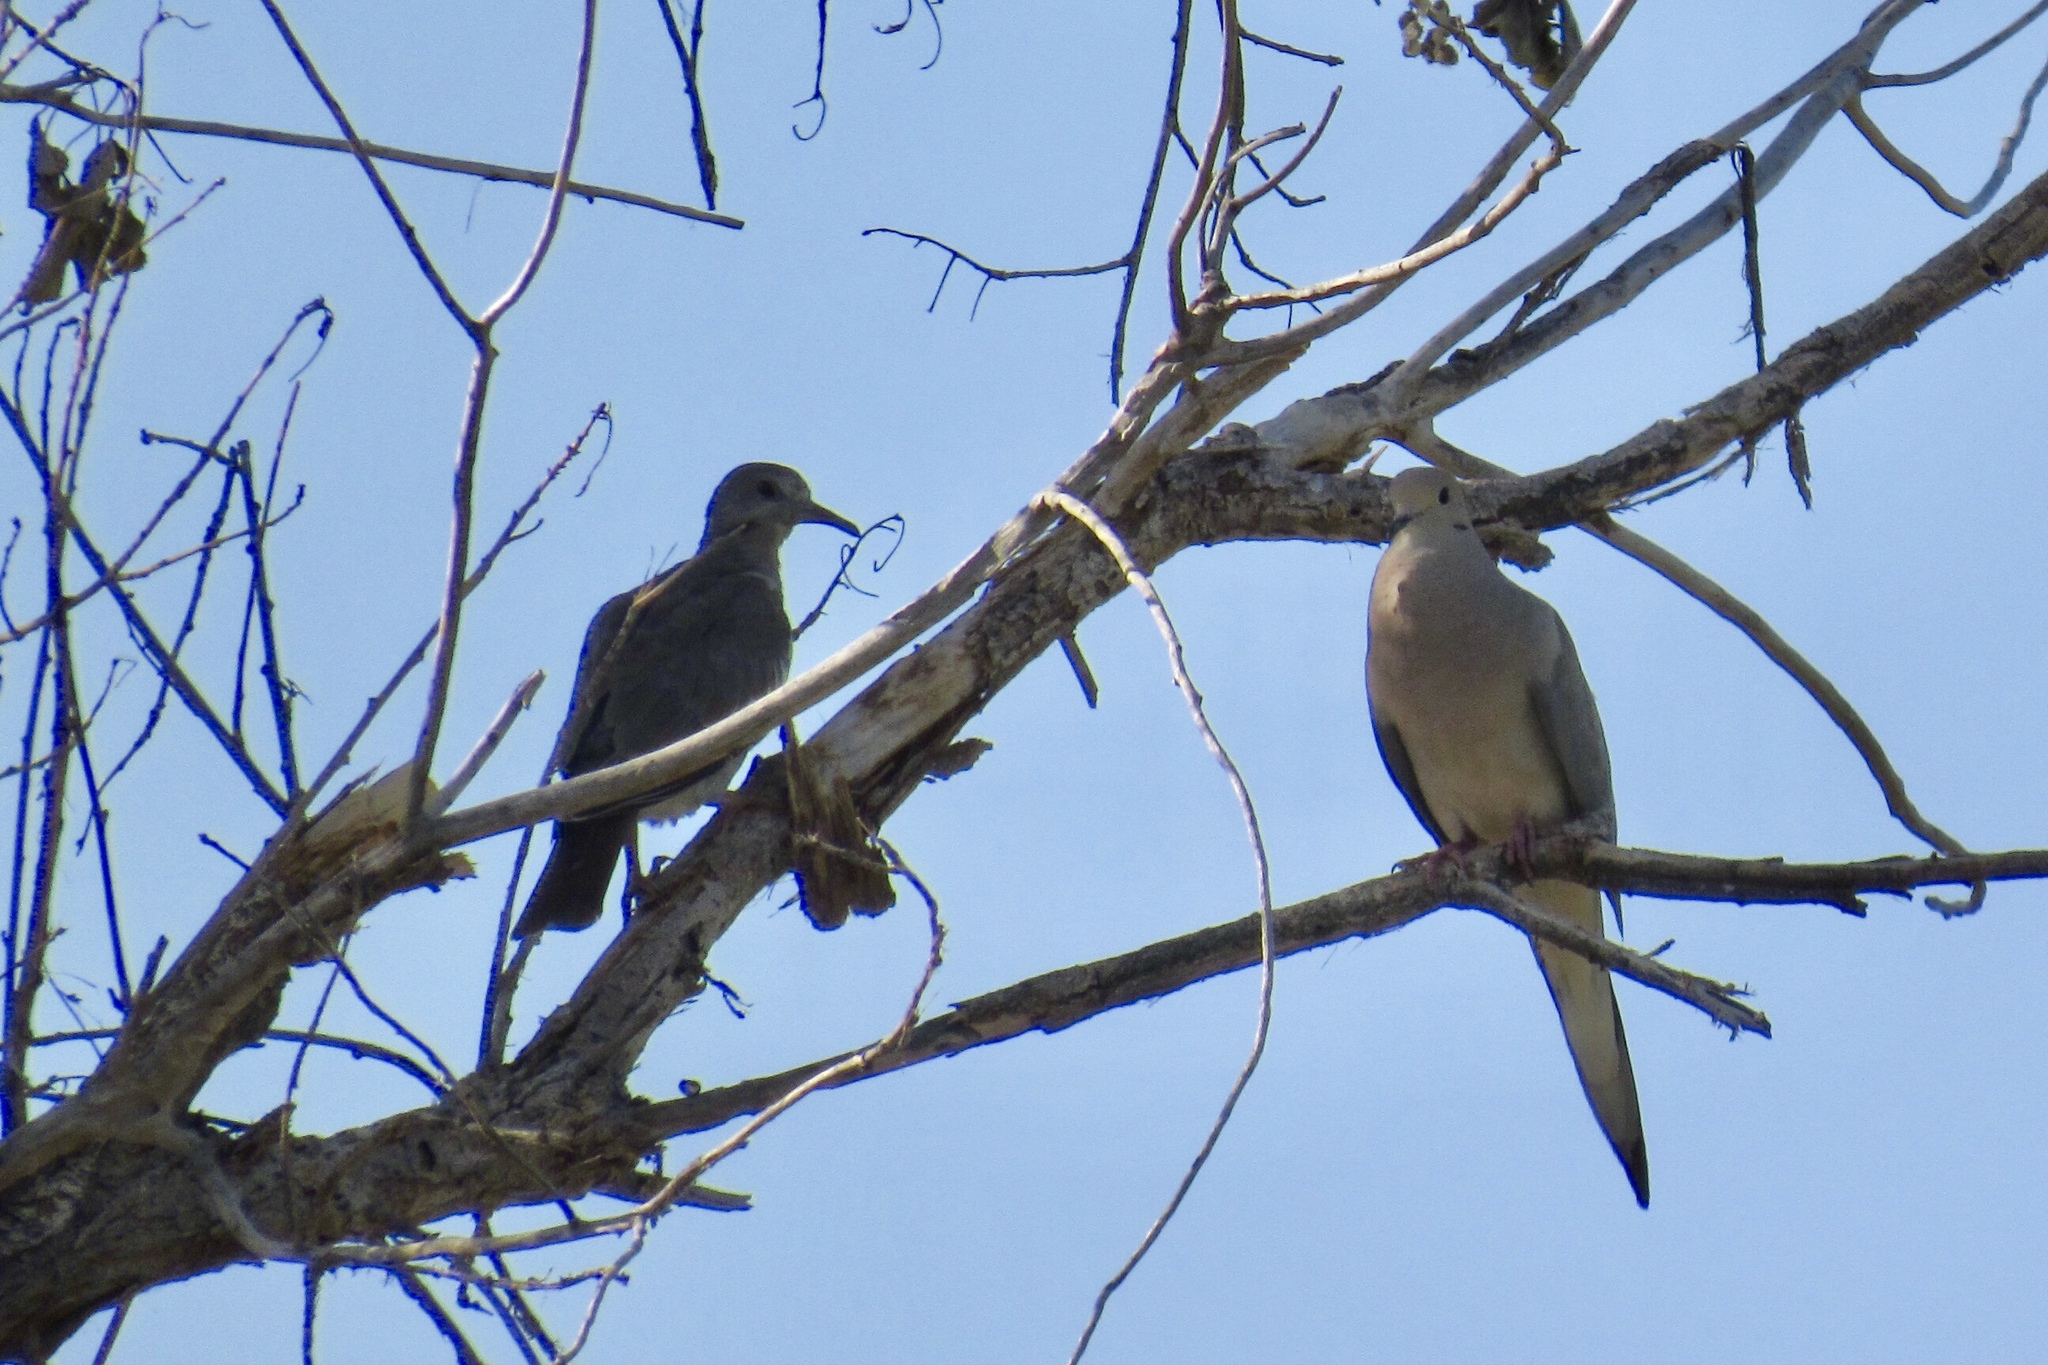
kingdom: Animalia
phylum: Chordata
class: Aves
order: Columbiformes
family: Columbidae
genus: Zenaida
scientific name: Zenaida macroura
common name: Mourning dove
